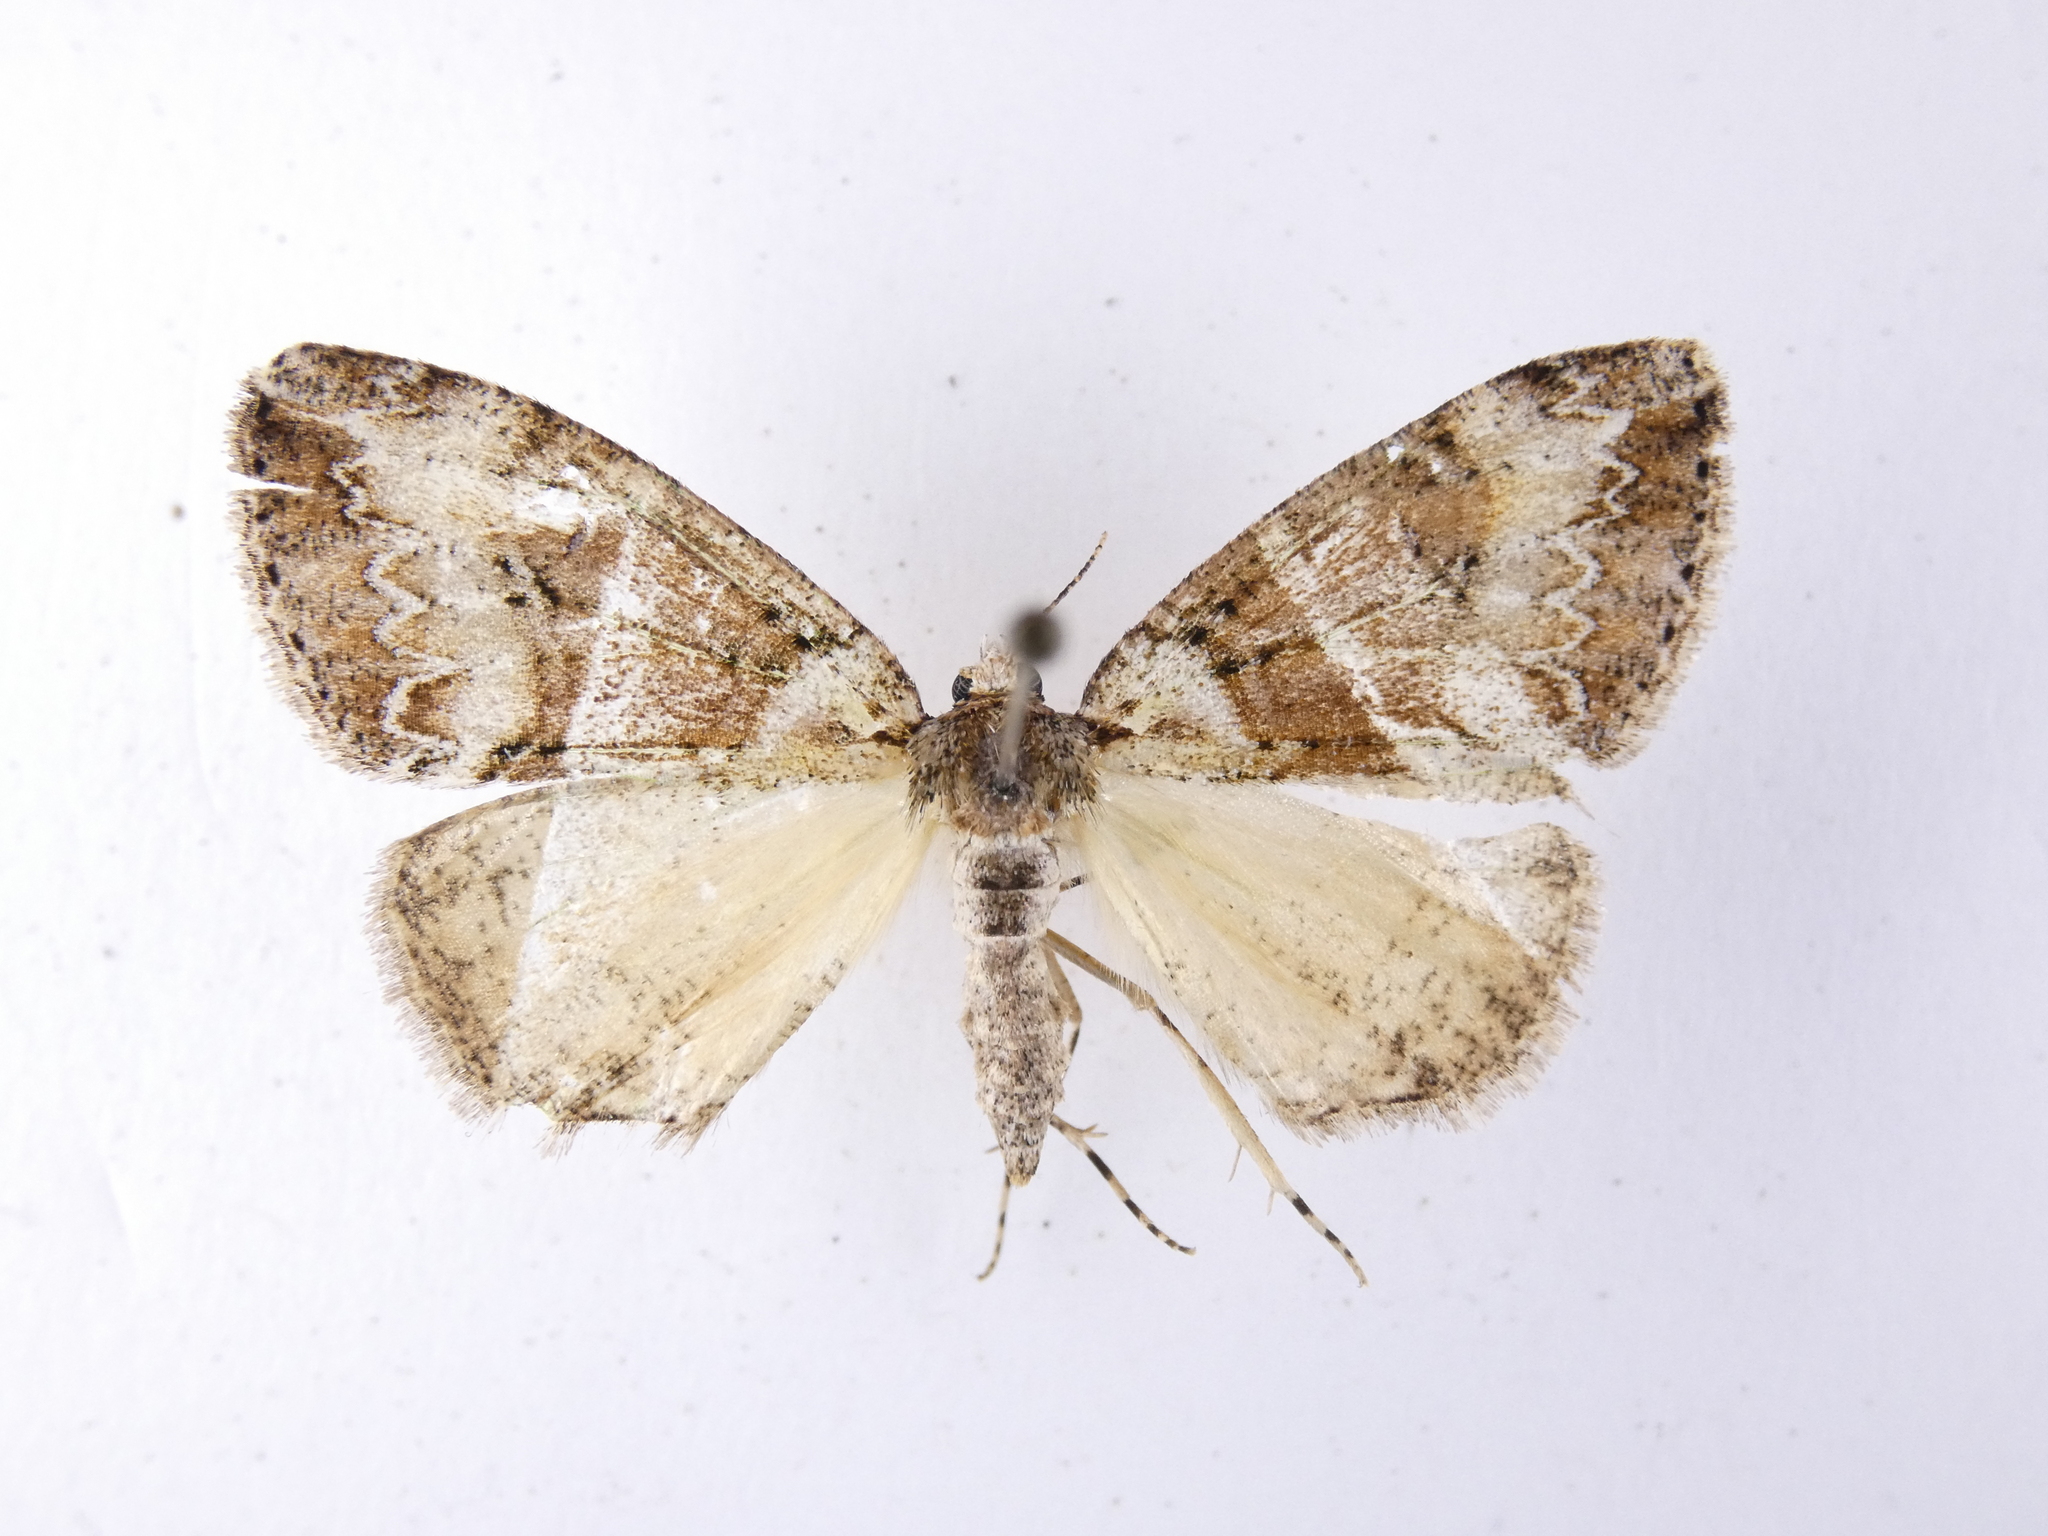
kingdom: Animalia
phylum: Arthropoda
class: Insecta
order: Lepidoptera
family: Geometridae
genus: Pseudocoremia
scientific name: Pseudocoremia suavis
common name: Common forest looper
